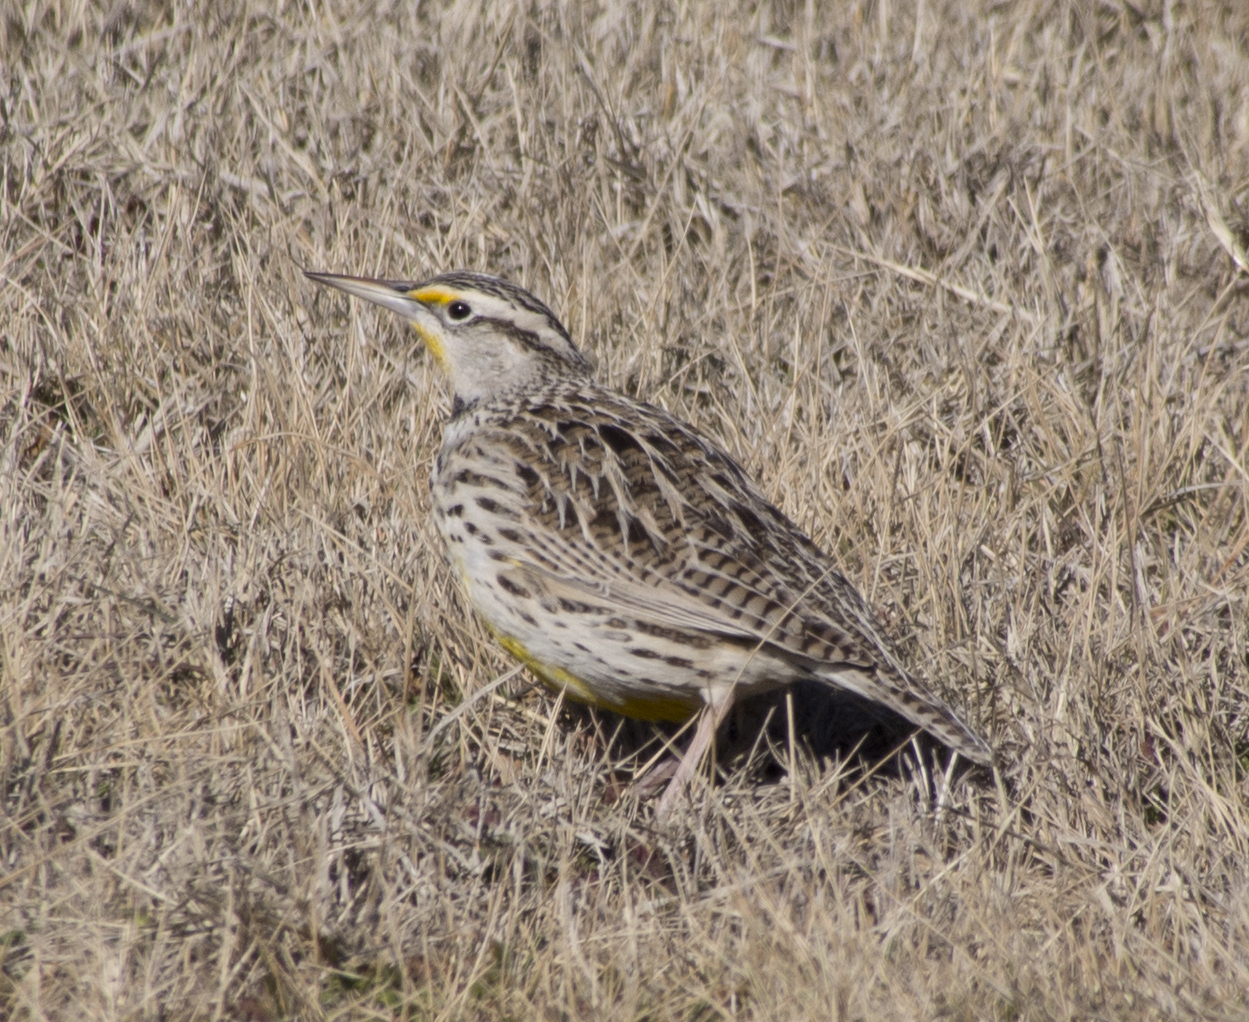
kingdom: Animalia
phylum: Chordata
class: Aves
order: Passeriformes
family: Icteridae
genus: Sturnella
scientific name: Sturnella neglecta
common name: Western meadowlark
